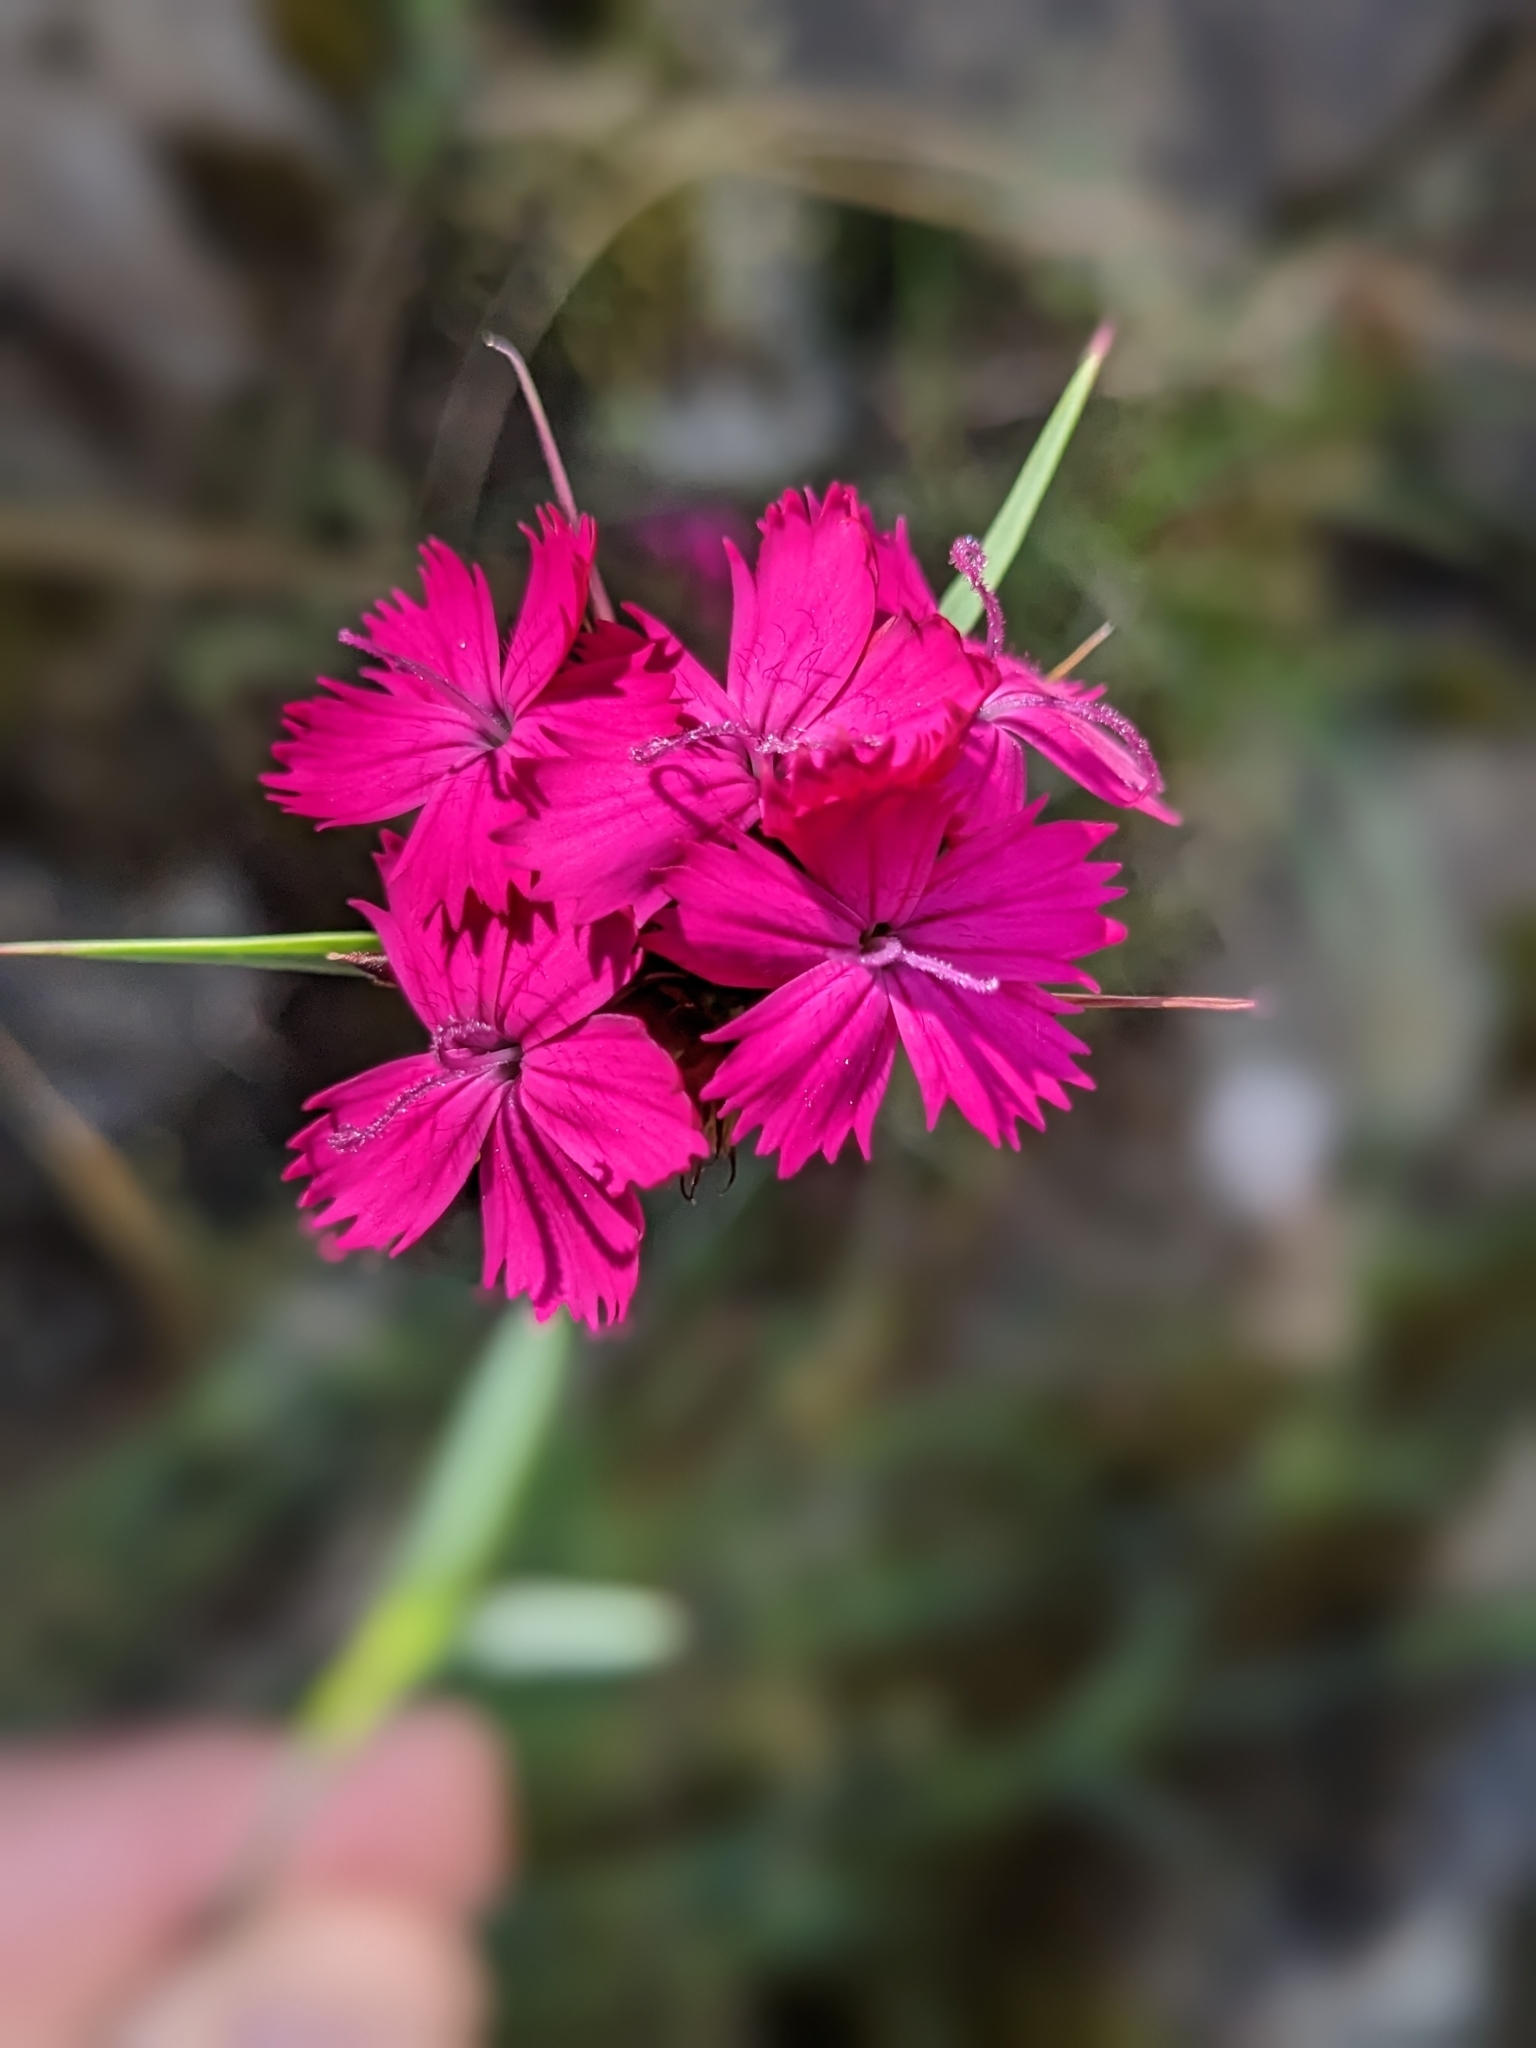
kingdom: Plantae
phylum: Tracheophyta
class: Magnoliopsida
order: Caryophyllales
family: Caryophyllaceae
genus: Dianthus
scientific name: Dianthus carthusianorum
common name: Carthusian pink
